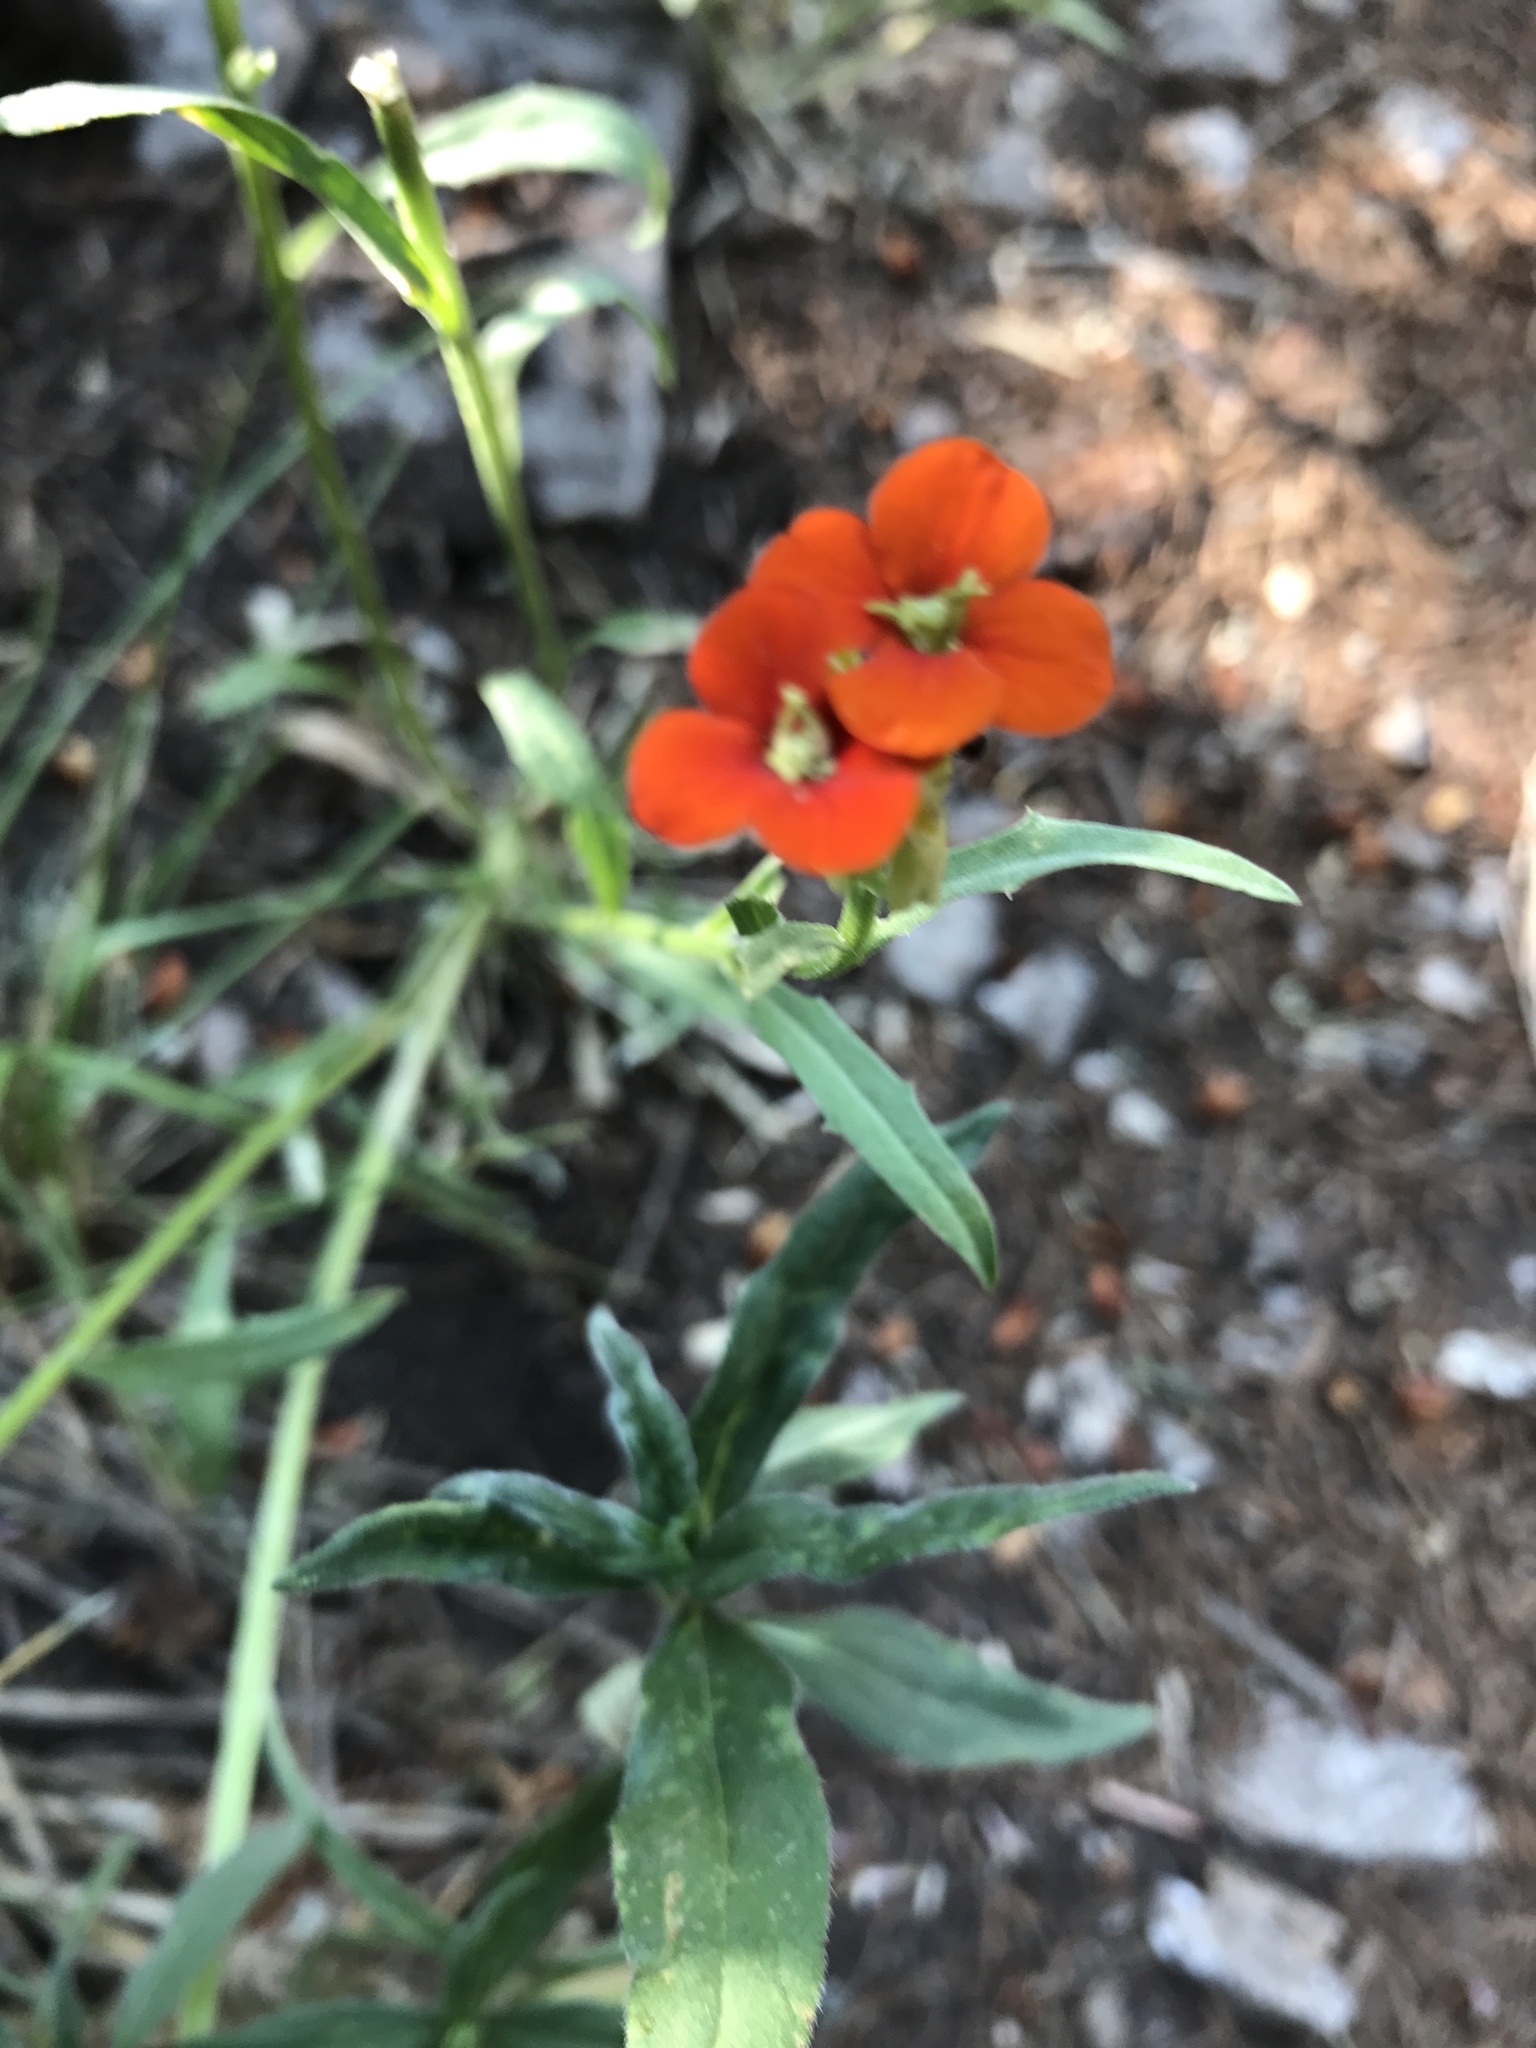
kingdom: Plantae
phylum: Tracheophyta
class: Magnoliopsida
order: Brassicales
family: Brassicaceae
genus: Erysimum
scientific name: Erysimum capitatum
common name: Western wallflower
